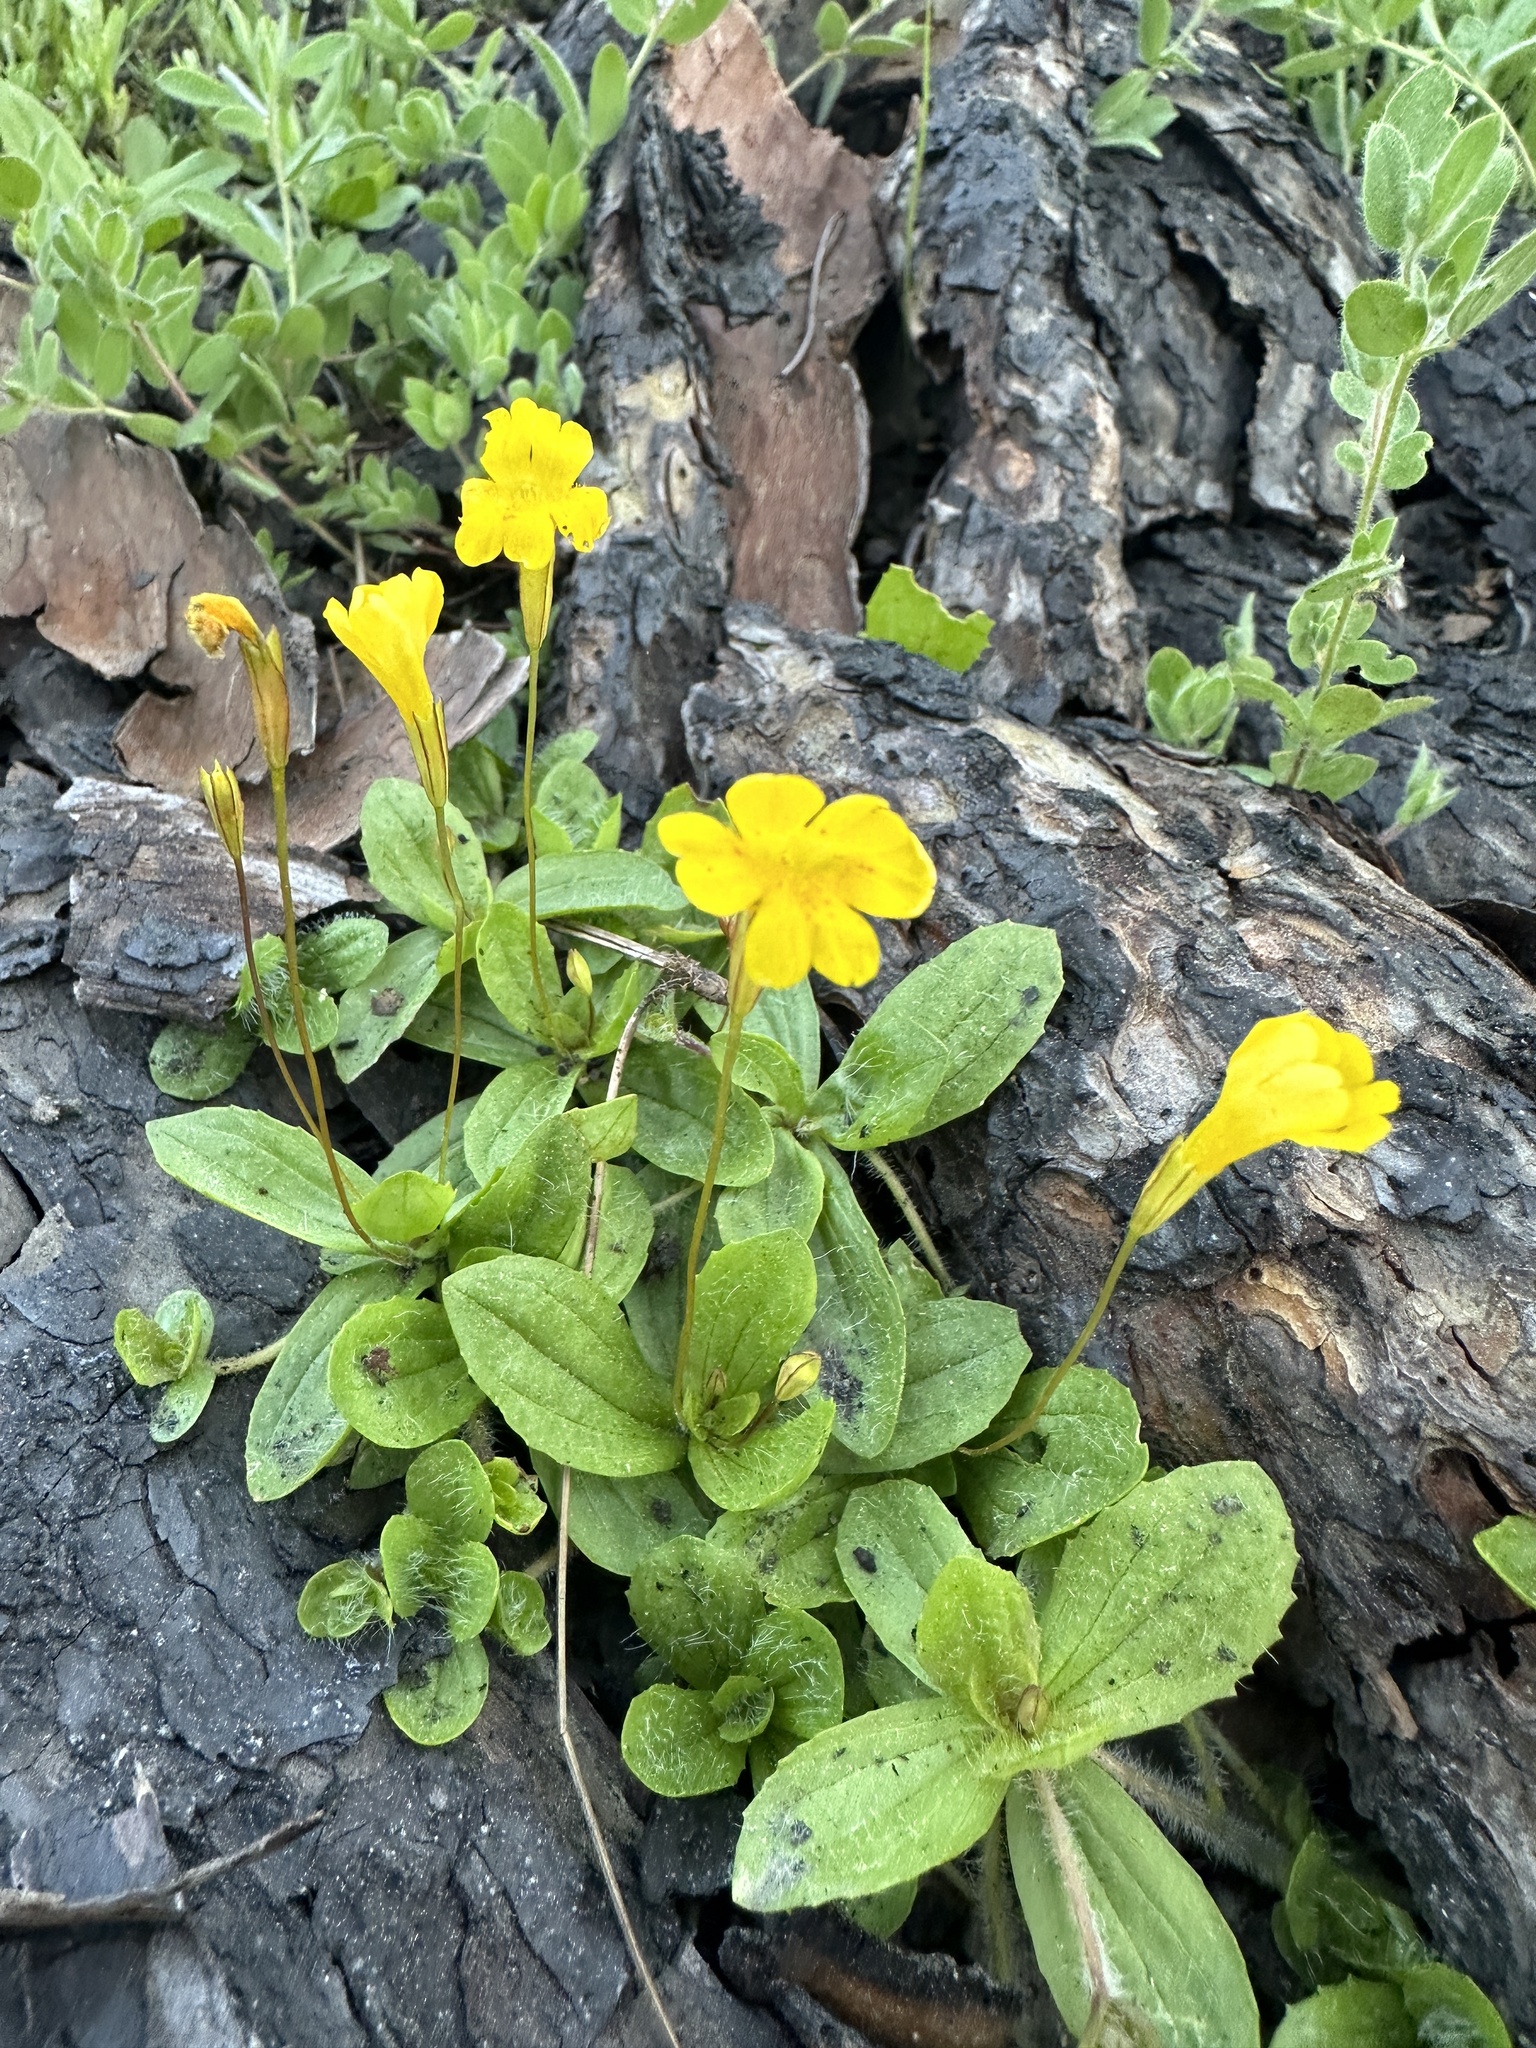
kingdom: Plantae
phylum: Tracheophyta
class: Magnoliopsida
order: Lamiales
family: Phrymaceae
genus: Erythranthe
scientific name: Erythranthe primuloides
